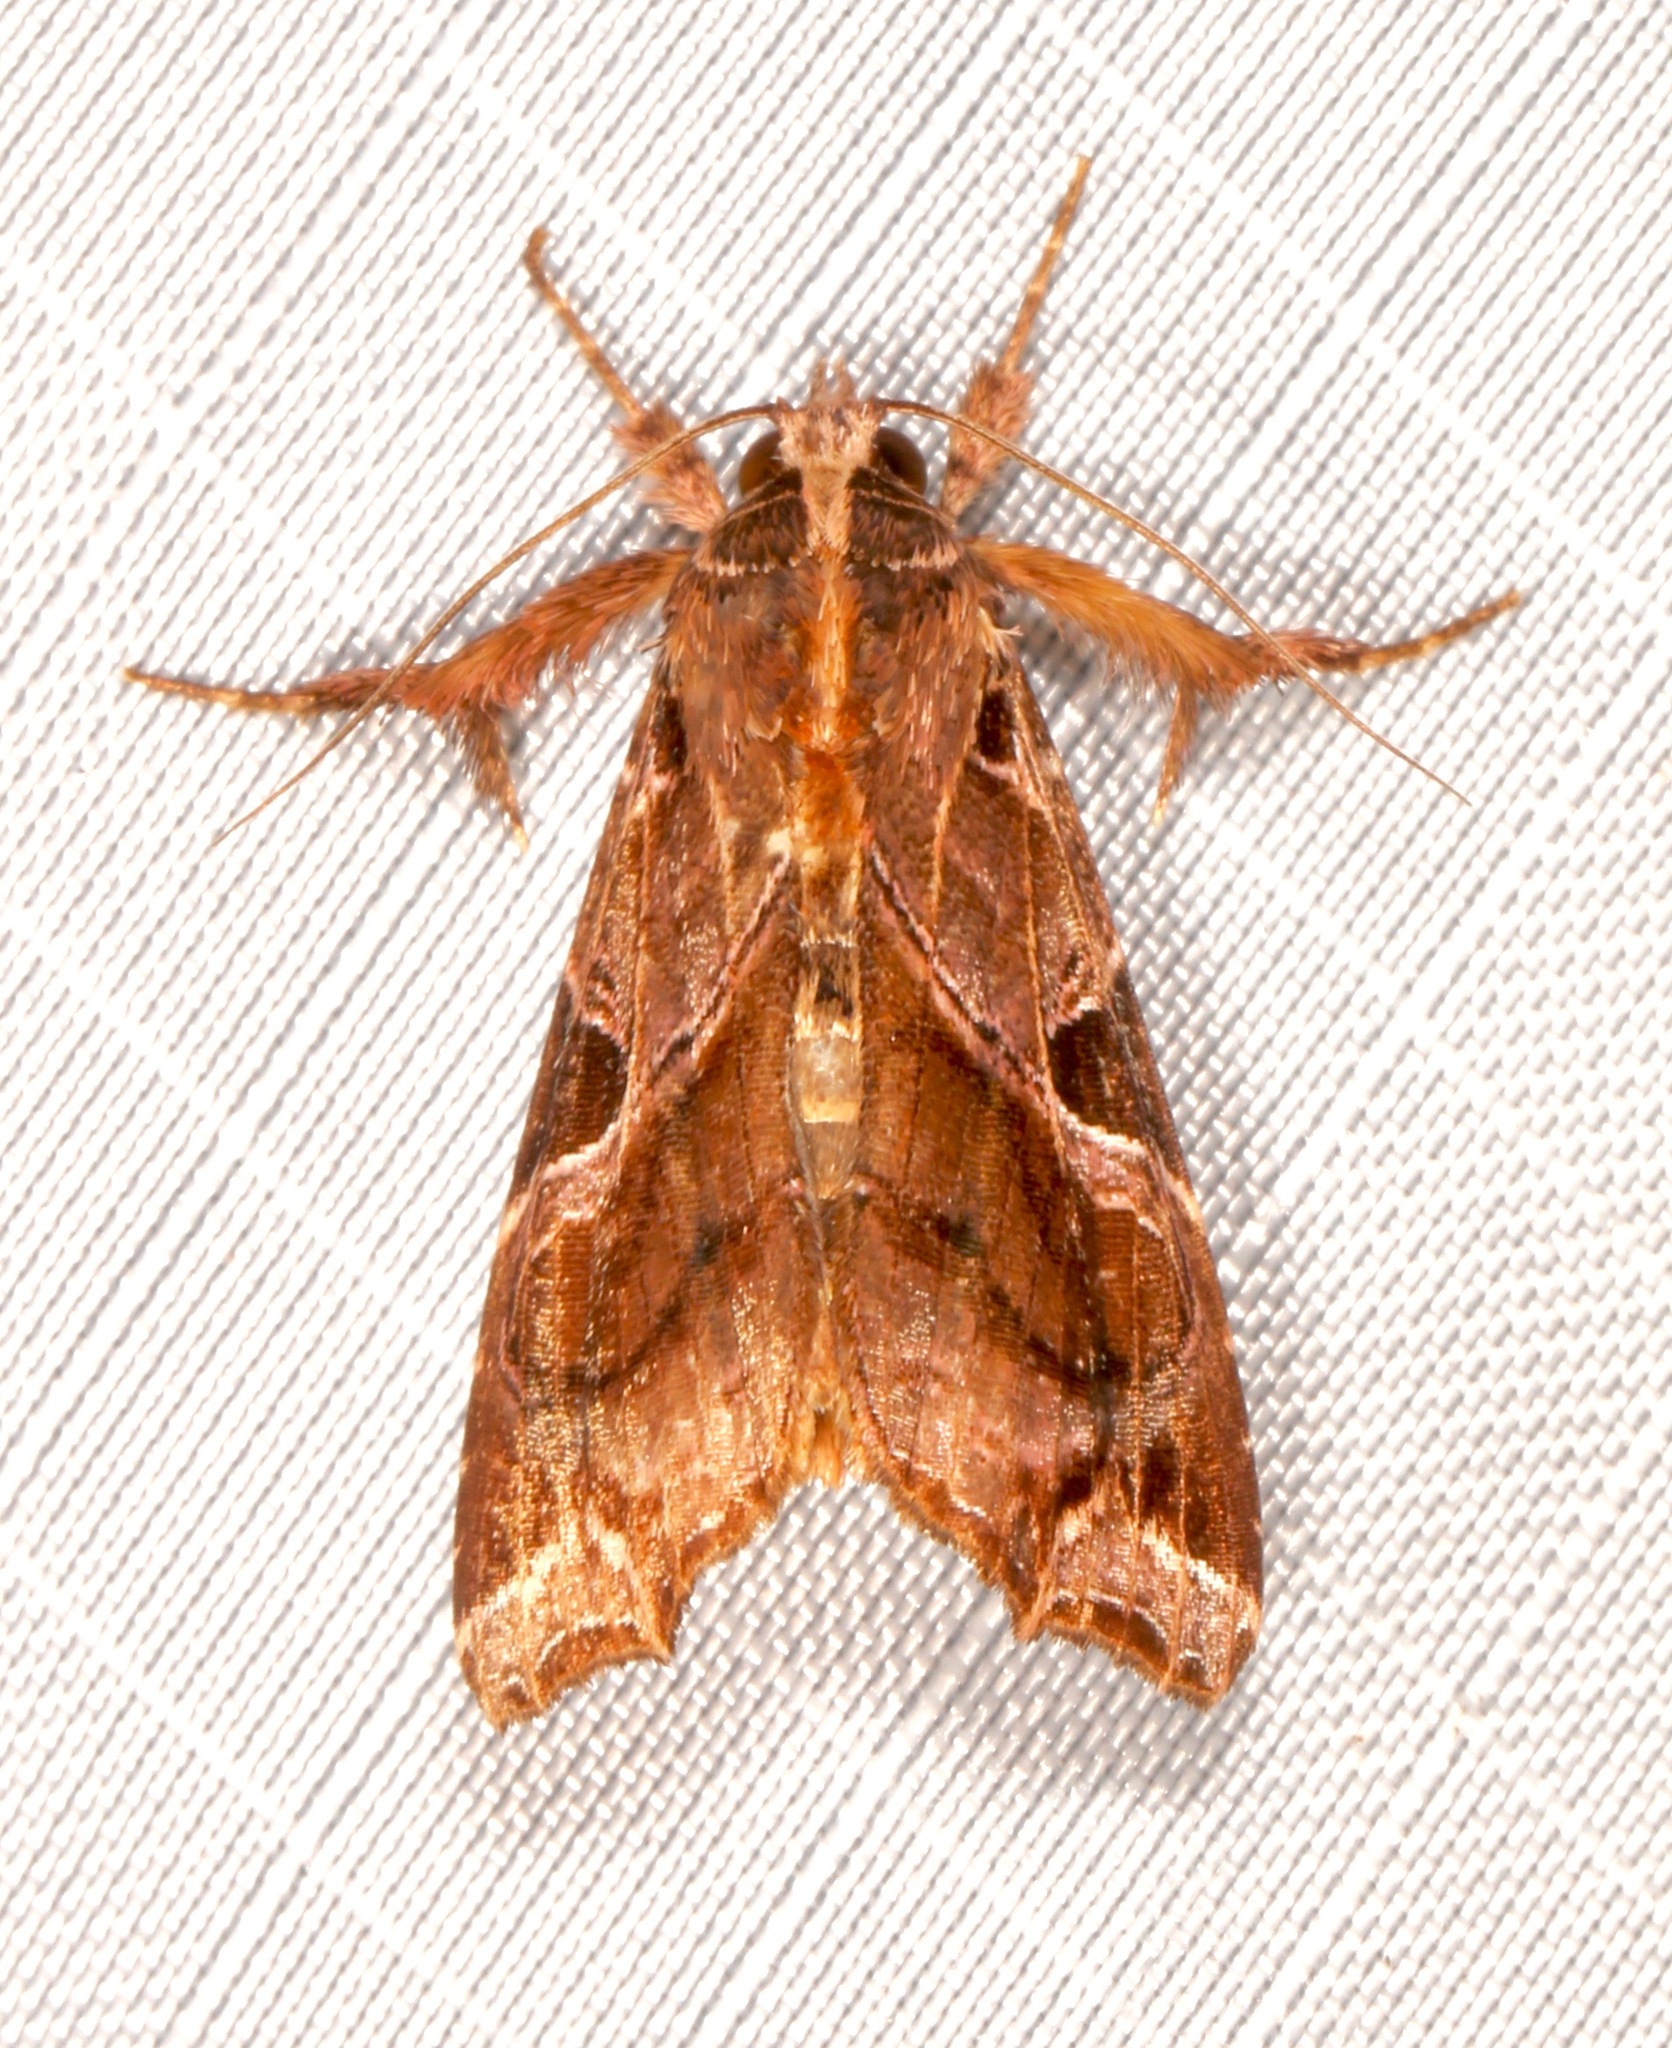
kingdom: Animalia
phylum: Arthropoda
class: Insecta
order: Lepidoptera
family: Noctuidae
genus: Callopistria
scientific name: Callopistria floridensis
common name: Florida fern moth
